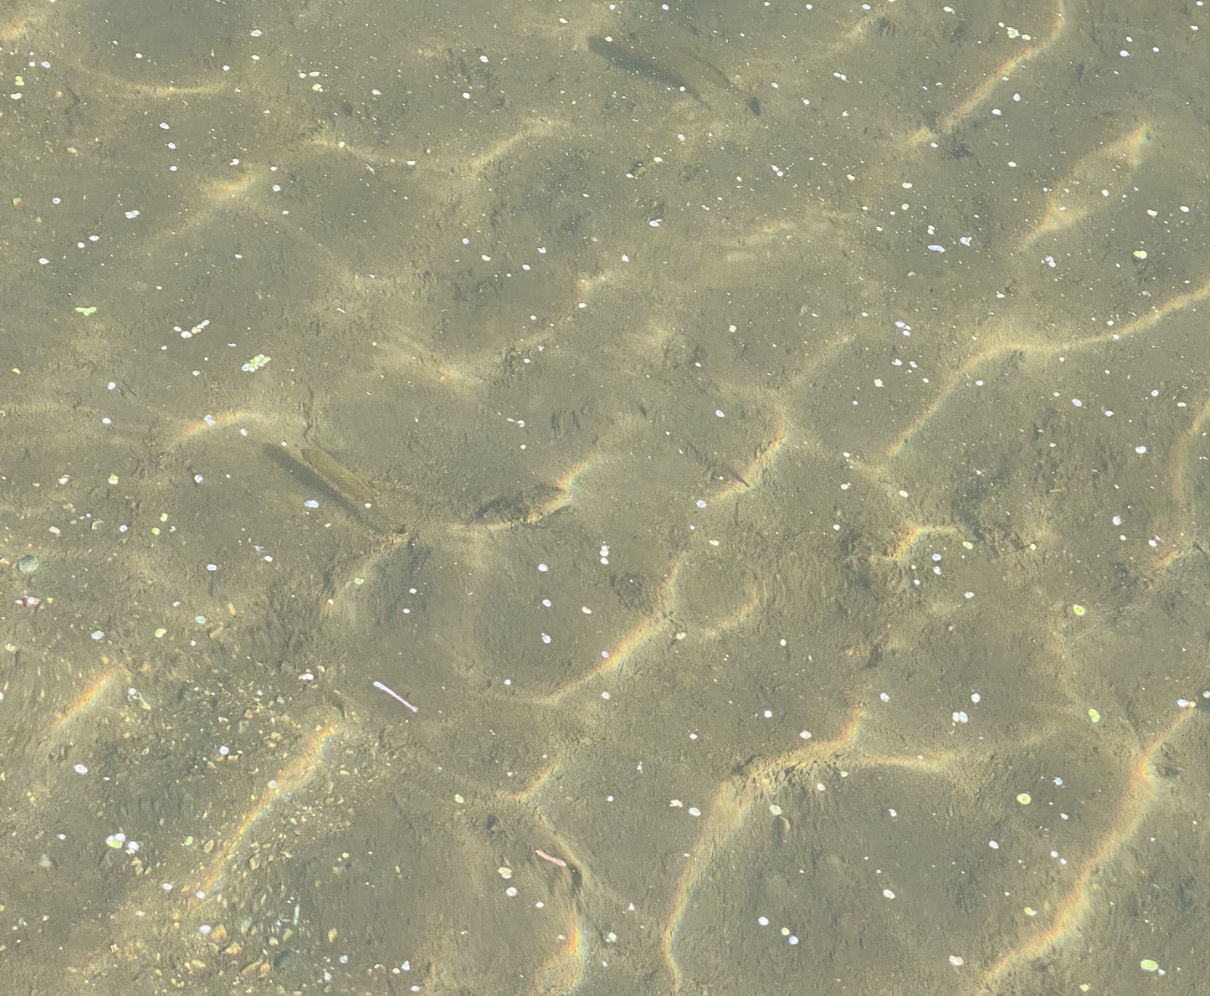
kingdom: Animalia
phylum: Chordata
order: Perciformes
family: Centrarchidae
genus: Micropterus
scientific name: Micropterus dolomieu
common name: Smallmouth bass
